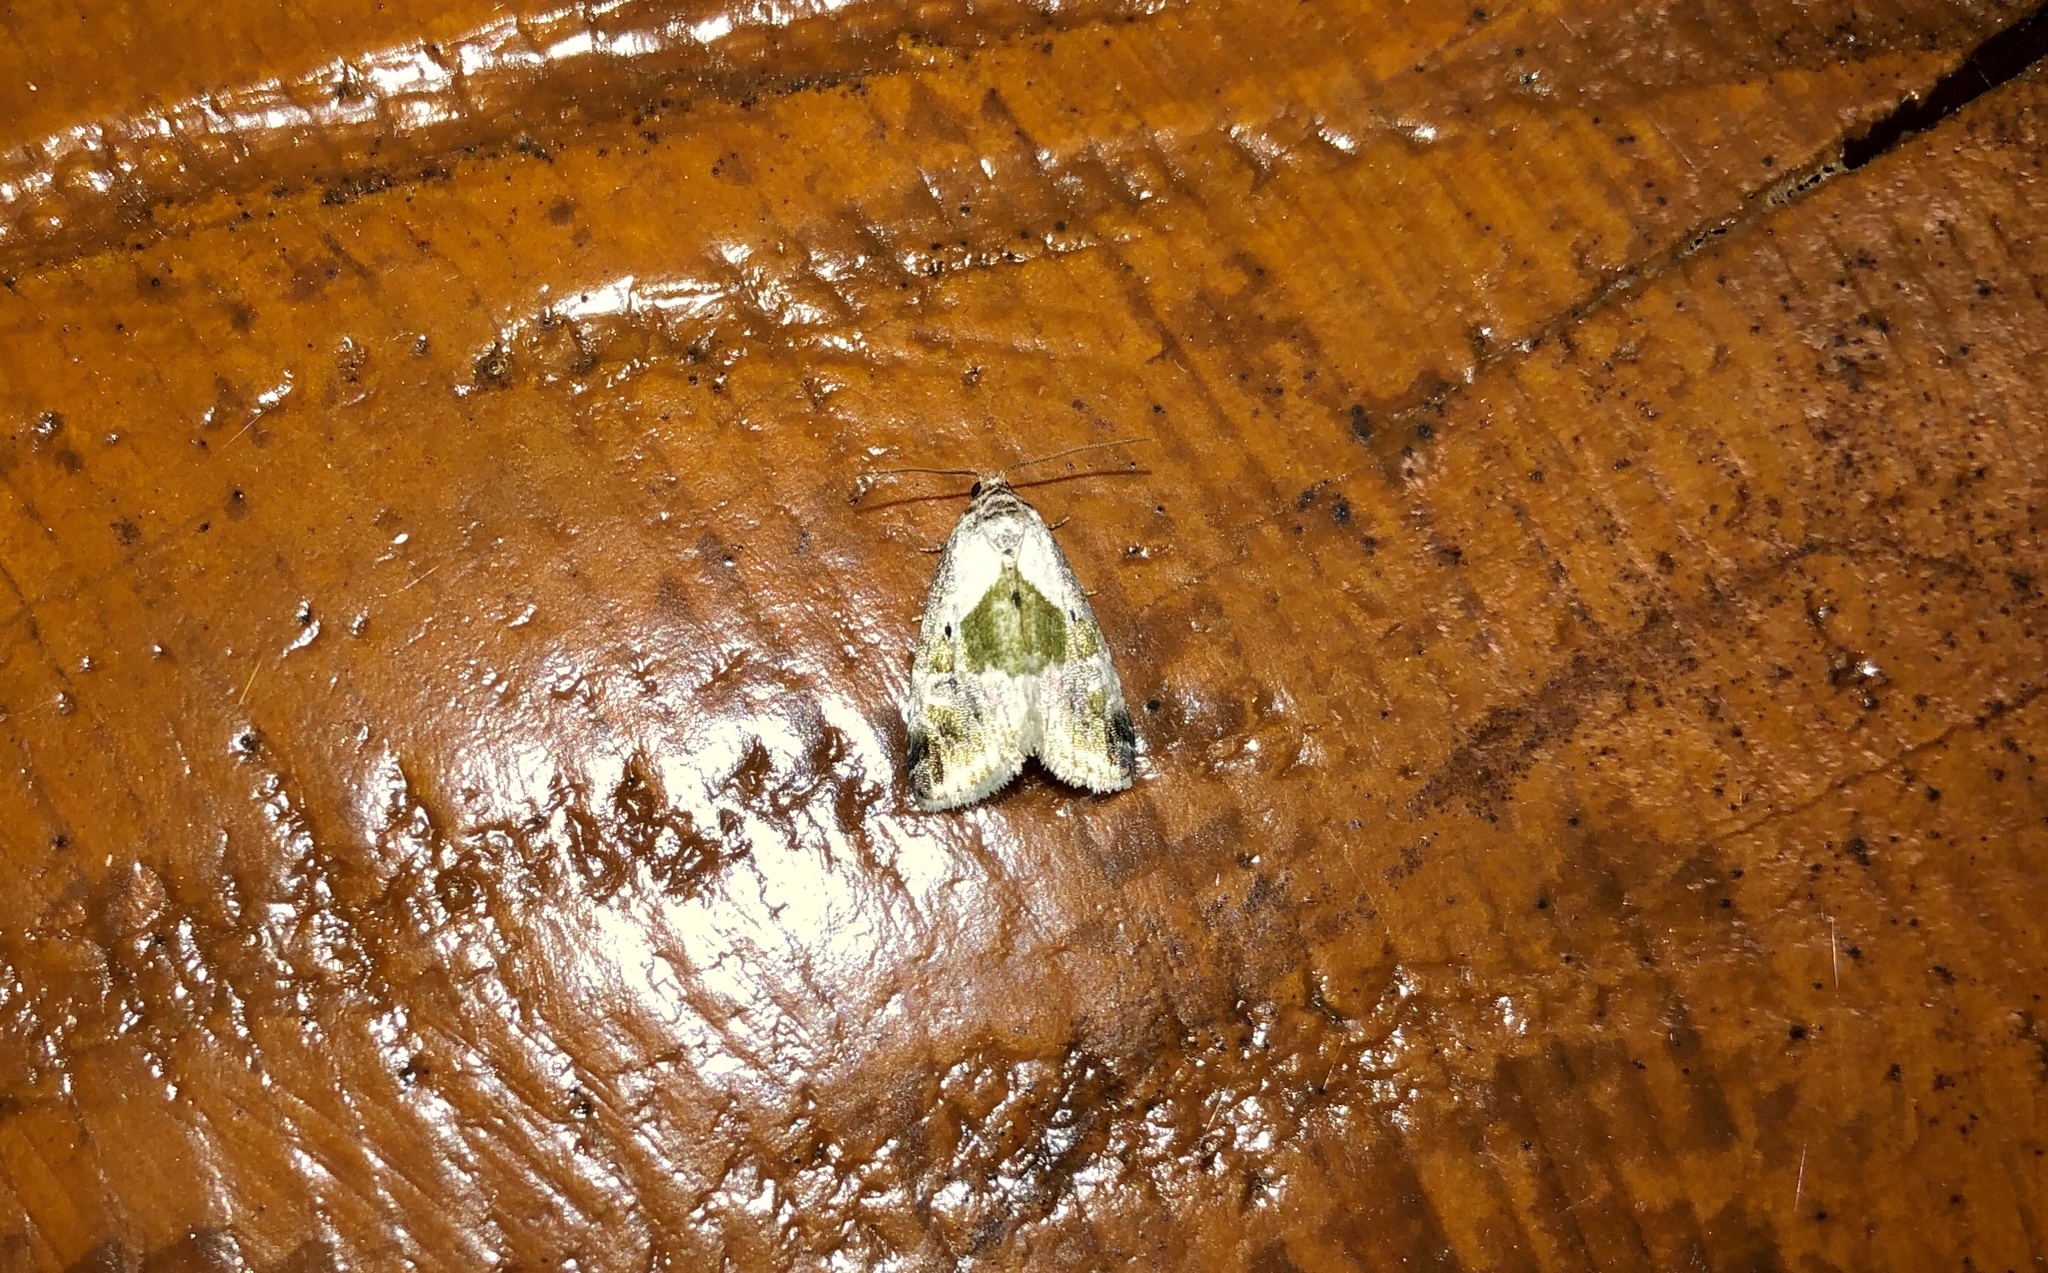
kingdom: Animalia
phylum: Arthropoda
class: Insecta
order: Lepidoptera
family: Noctuidae
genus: Maliattha
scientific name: Maliattha synochitis
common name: Black-dotted glyph
